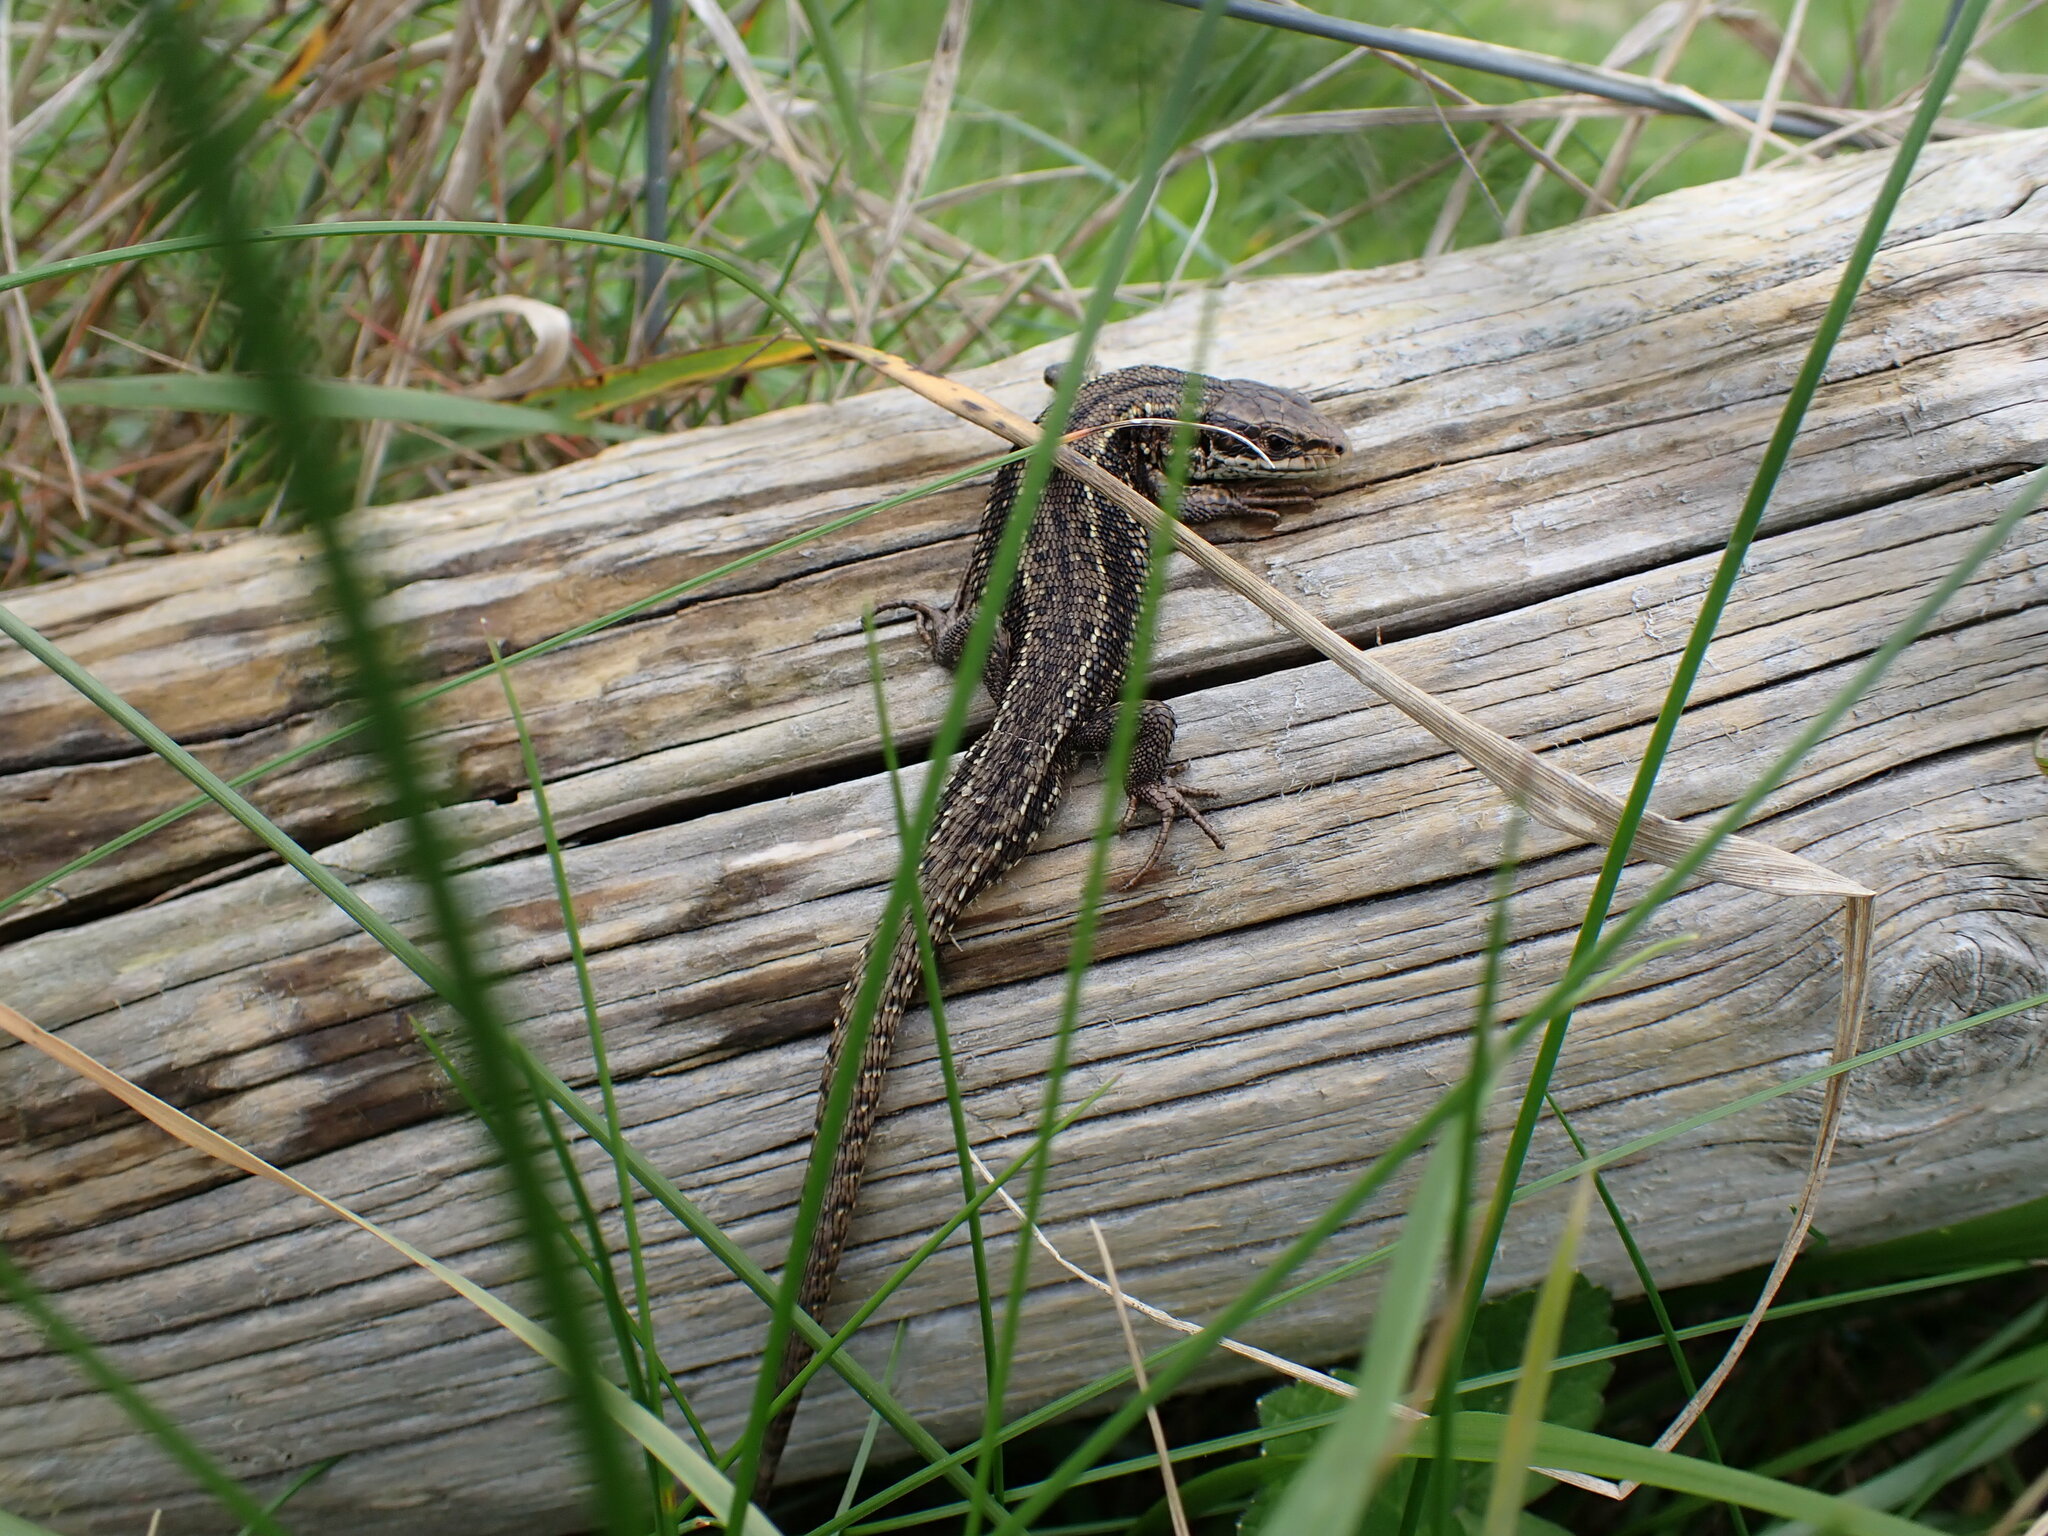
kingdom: Animalia
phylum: Chordata
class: Squamata
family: Lacertidae
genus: Zootoca
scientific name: Zootoca vivipara
